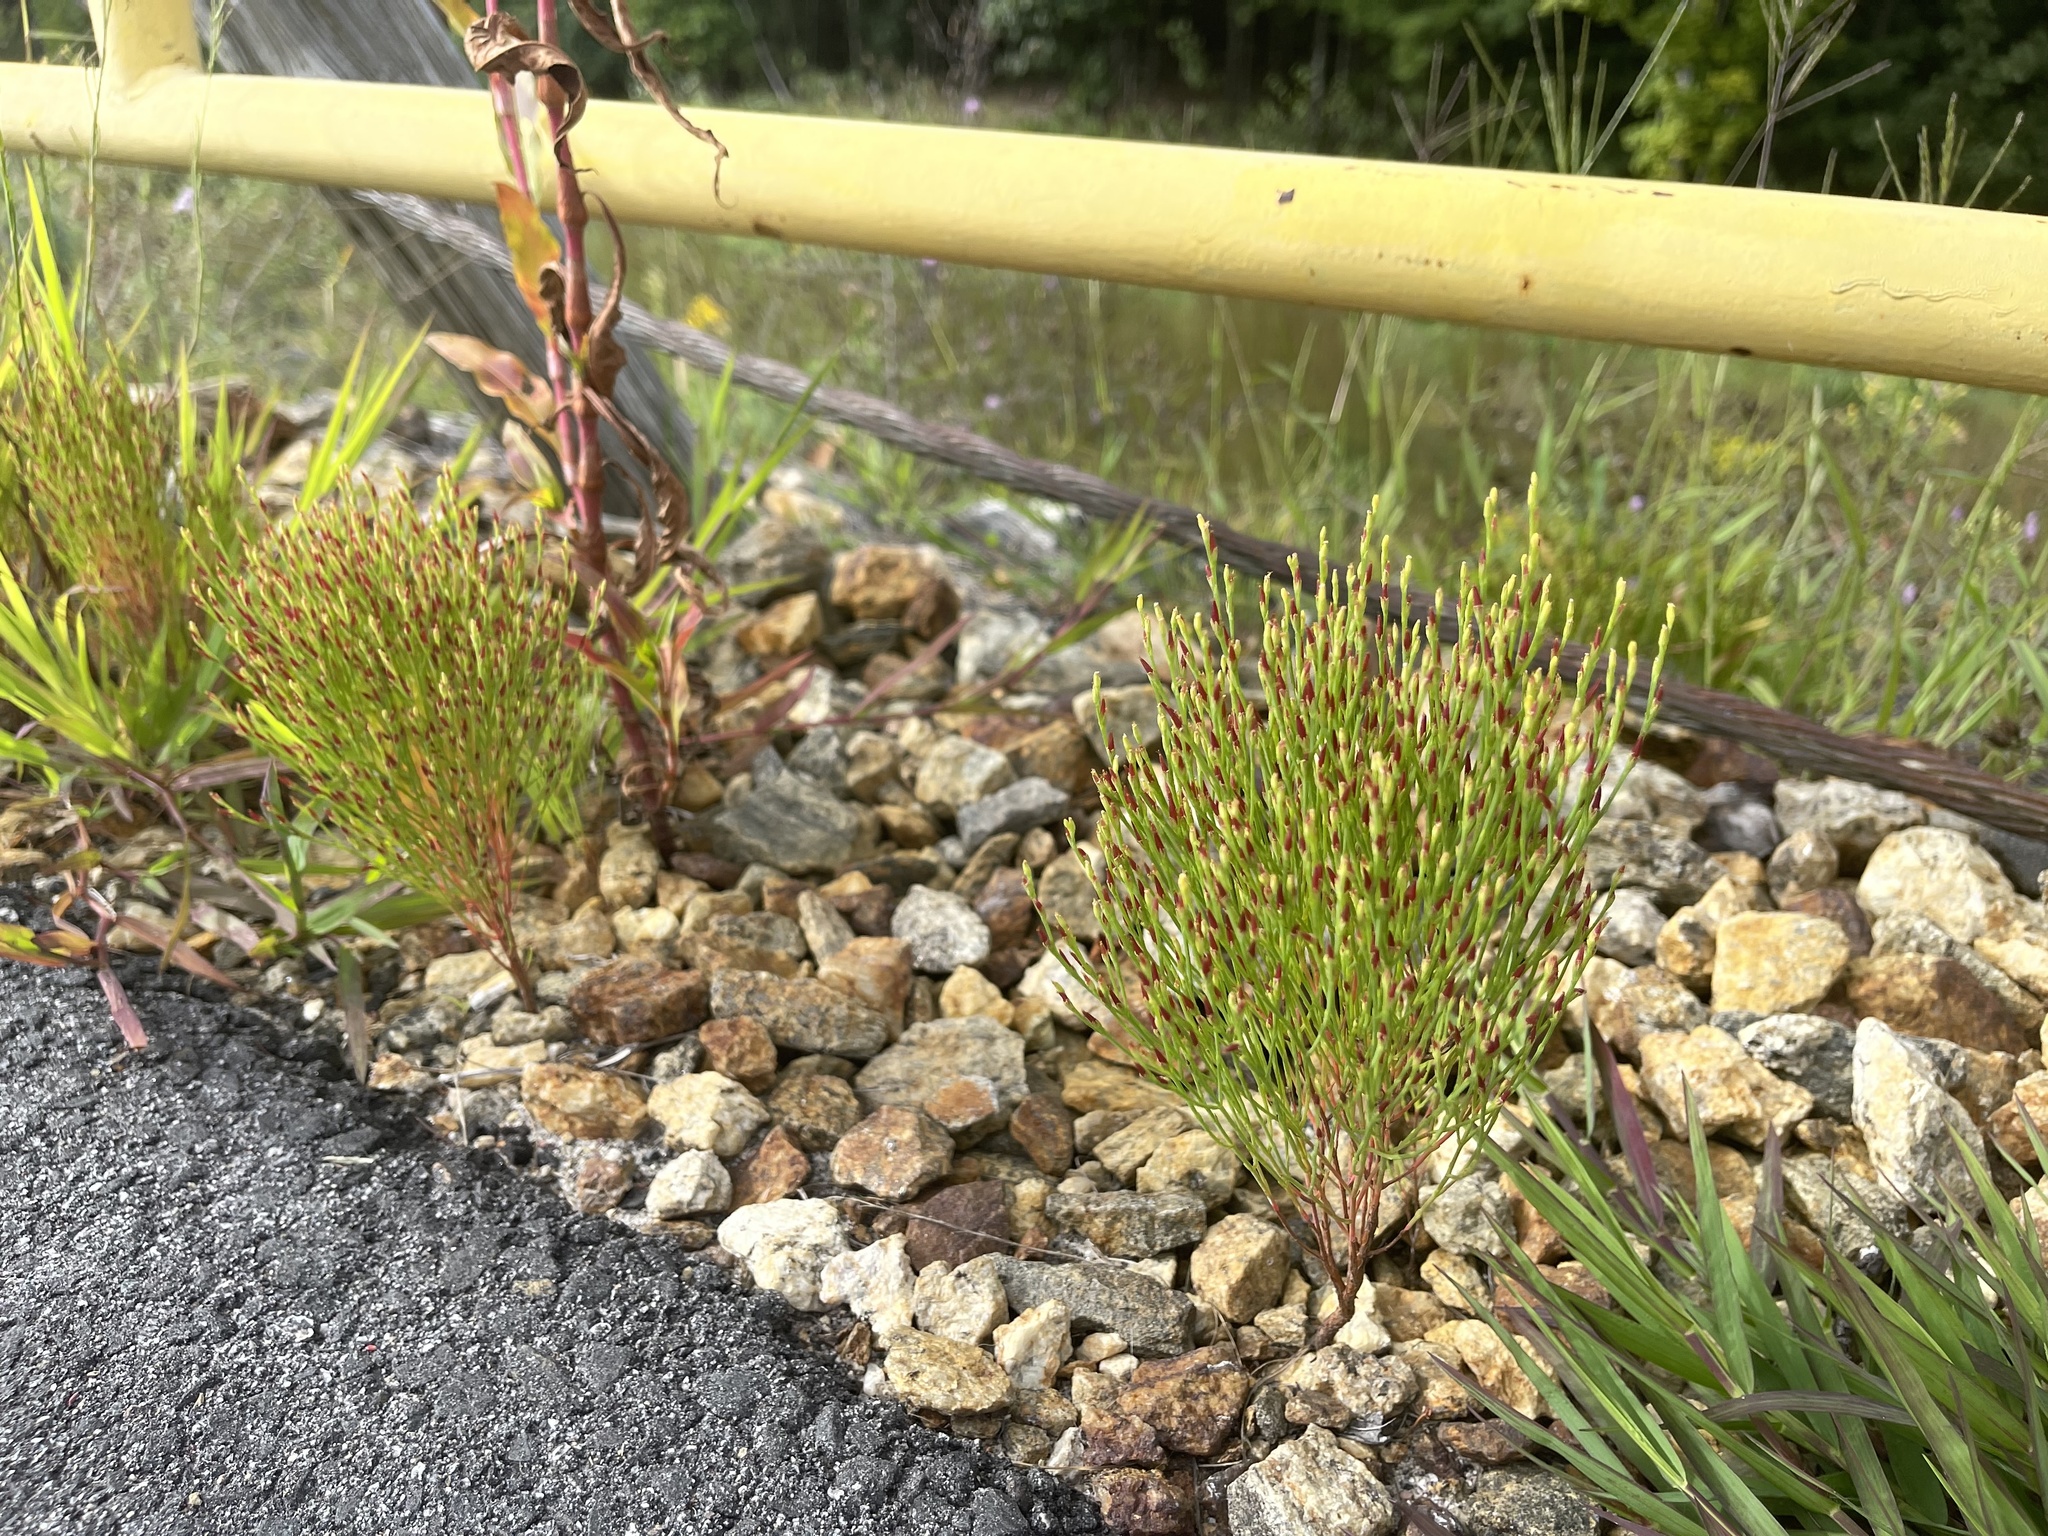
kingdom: Plantae
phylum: Tracheophyta
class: Magnoliopsida
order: Malpighiales
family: Hypericaceae
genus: Hypericum
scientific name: Hypericum gentianoides
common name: Gentian-leaved st. john's-wort
